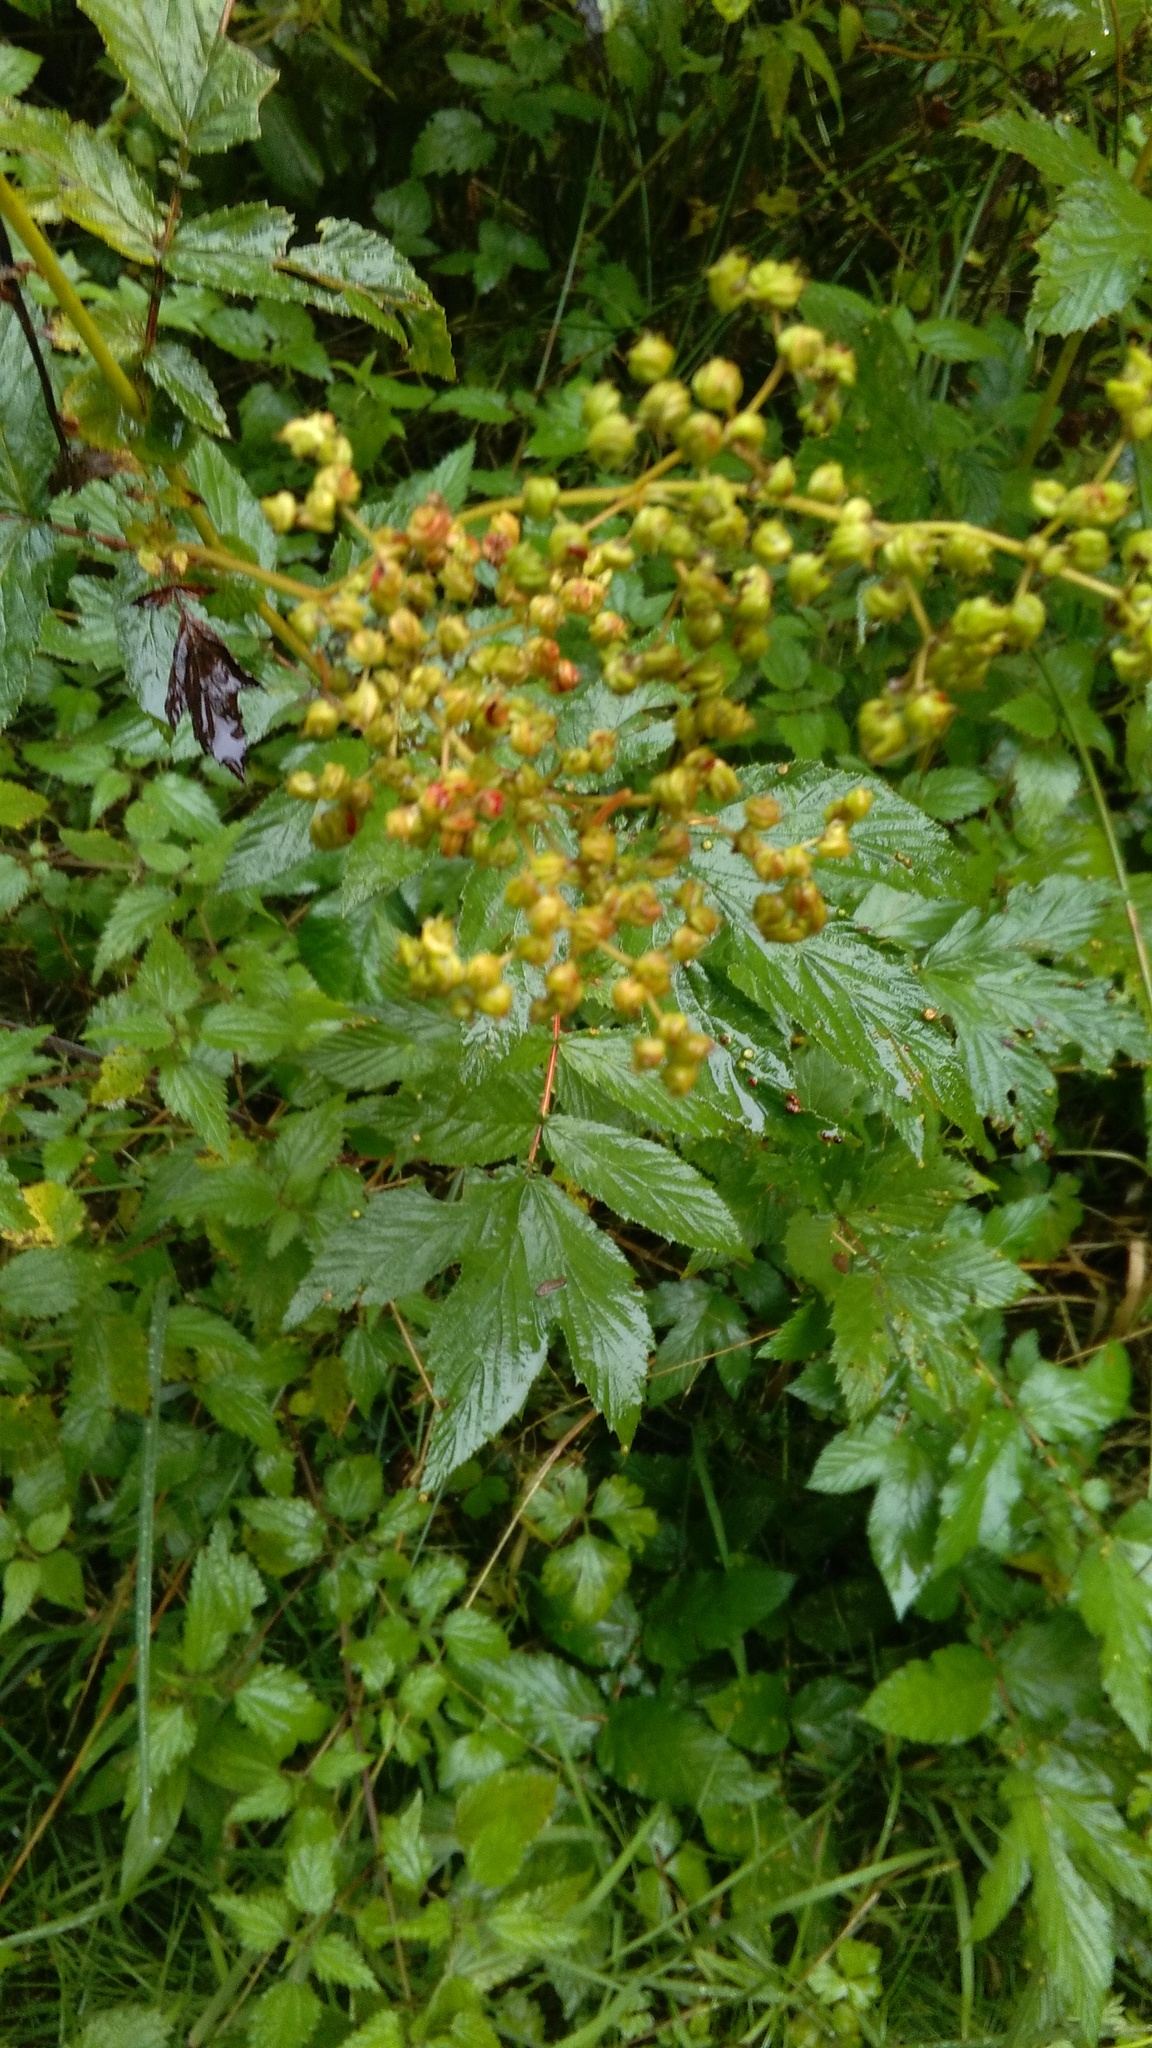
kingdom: Plantae
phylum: Tracheophyta
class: Magnoliopsida
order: Rosales
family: Rosaceae
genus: Filipendula
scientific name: Filipendula ulmaria
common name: Meadowsweet
